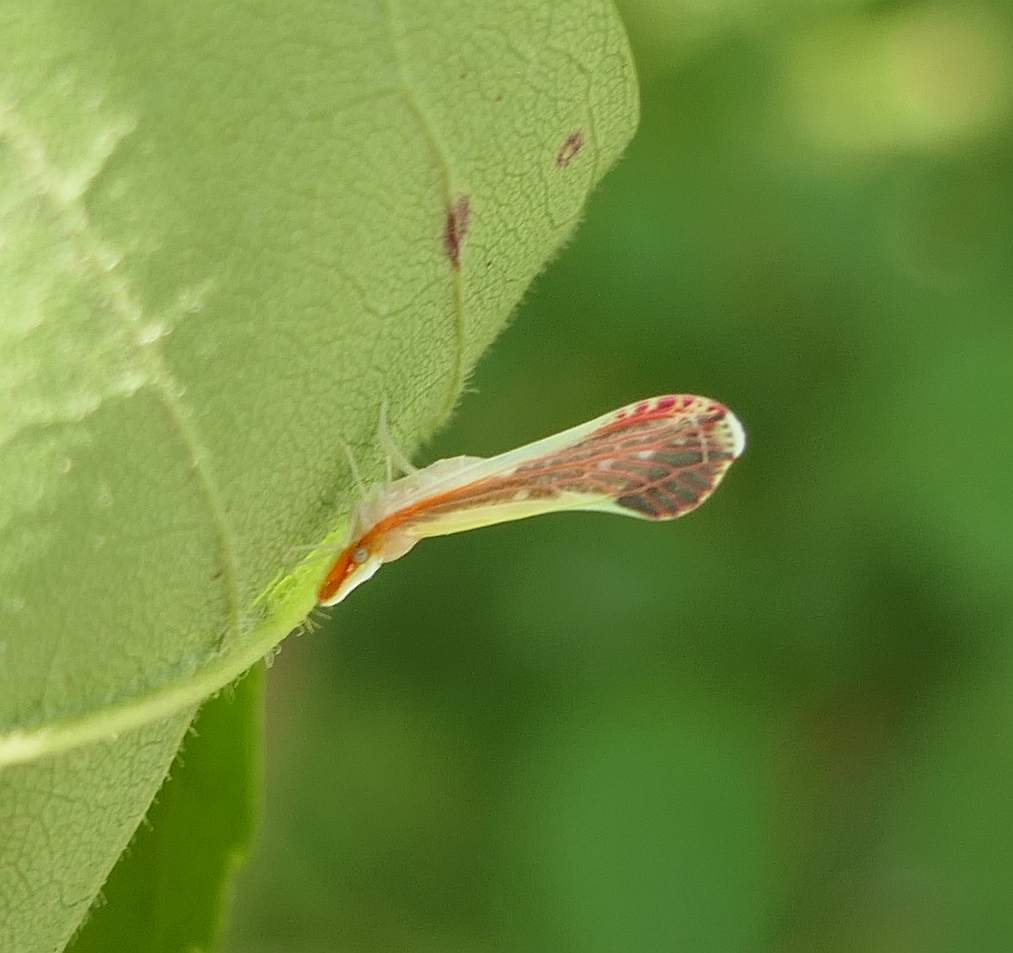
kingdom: Animalia
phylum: Arthropoda
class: Insecta
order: Hemiptera
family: Derbidae
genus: Shellenius
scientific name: Shellenius ballii
